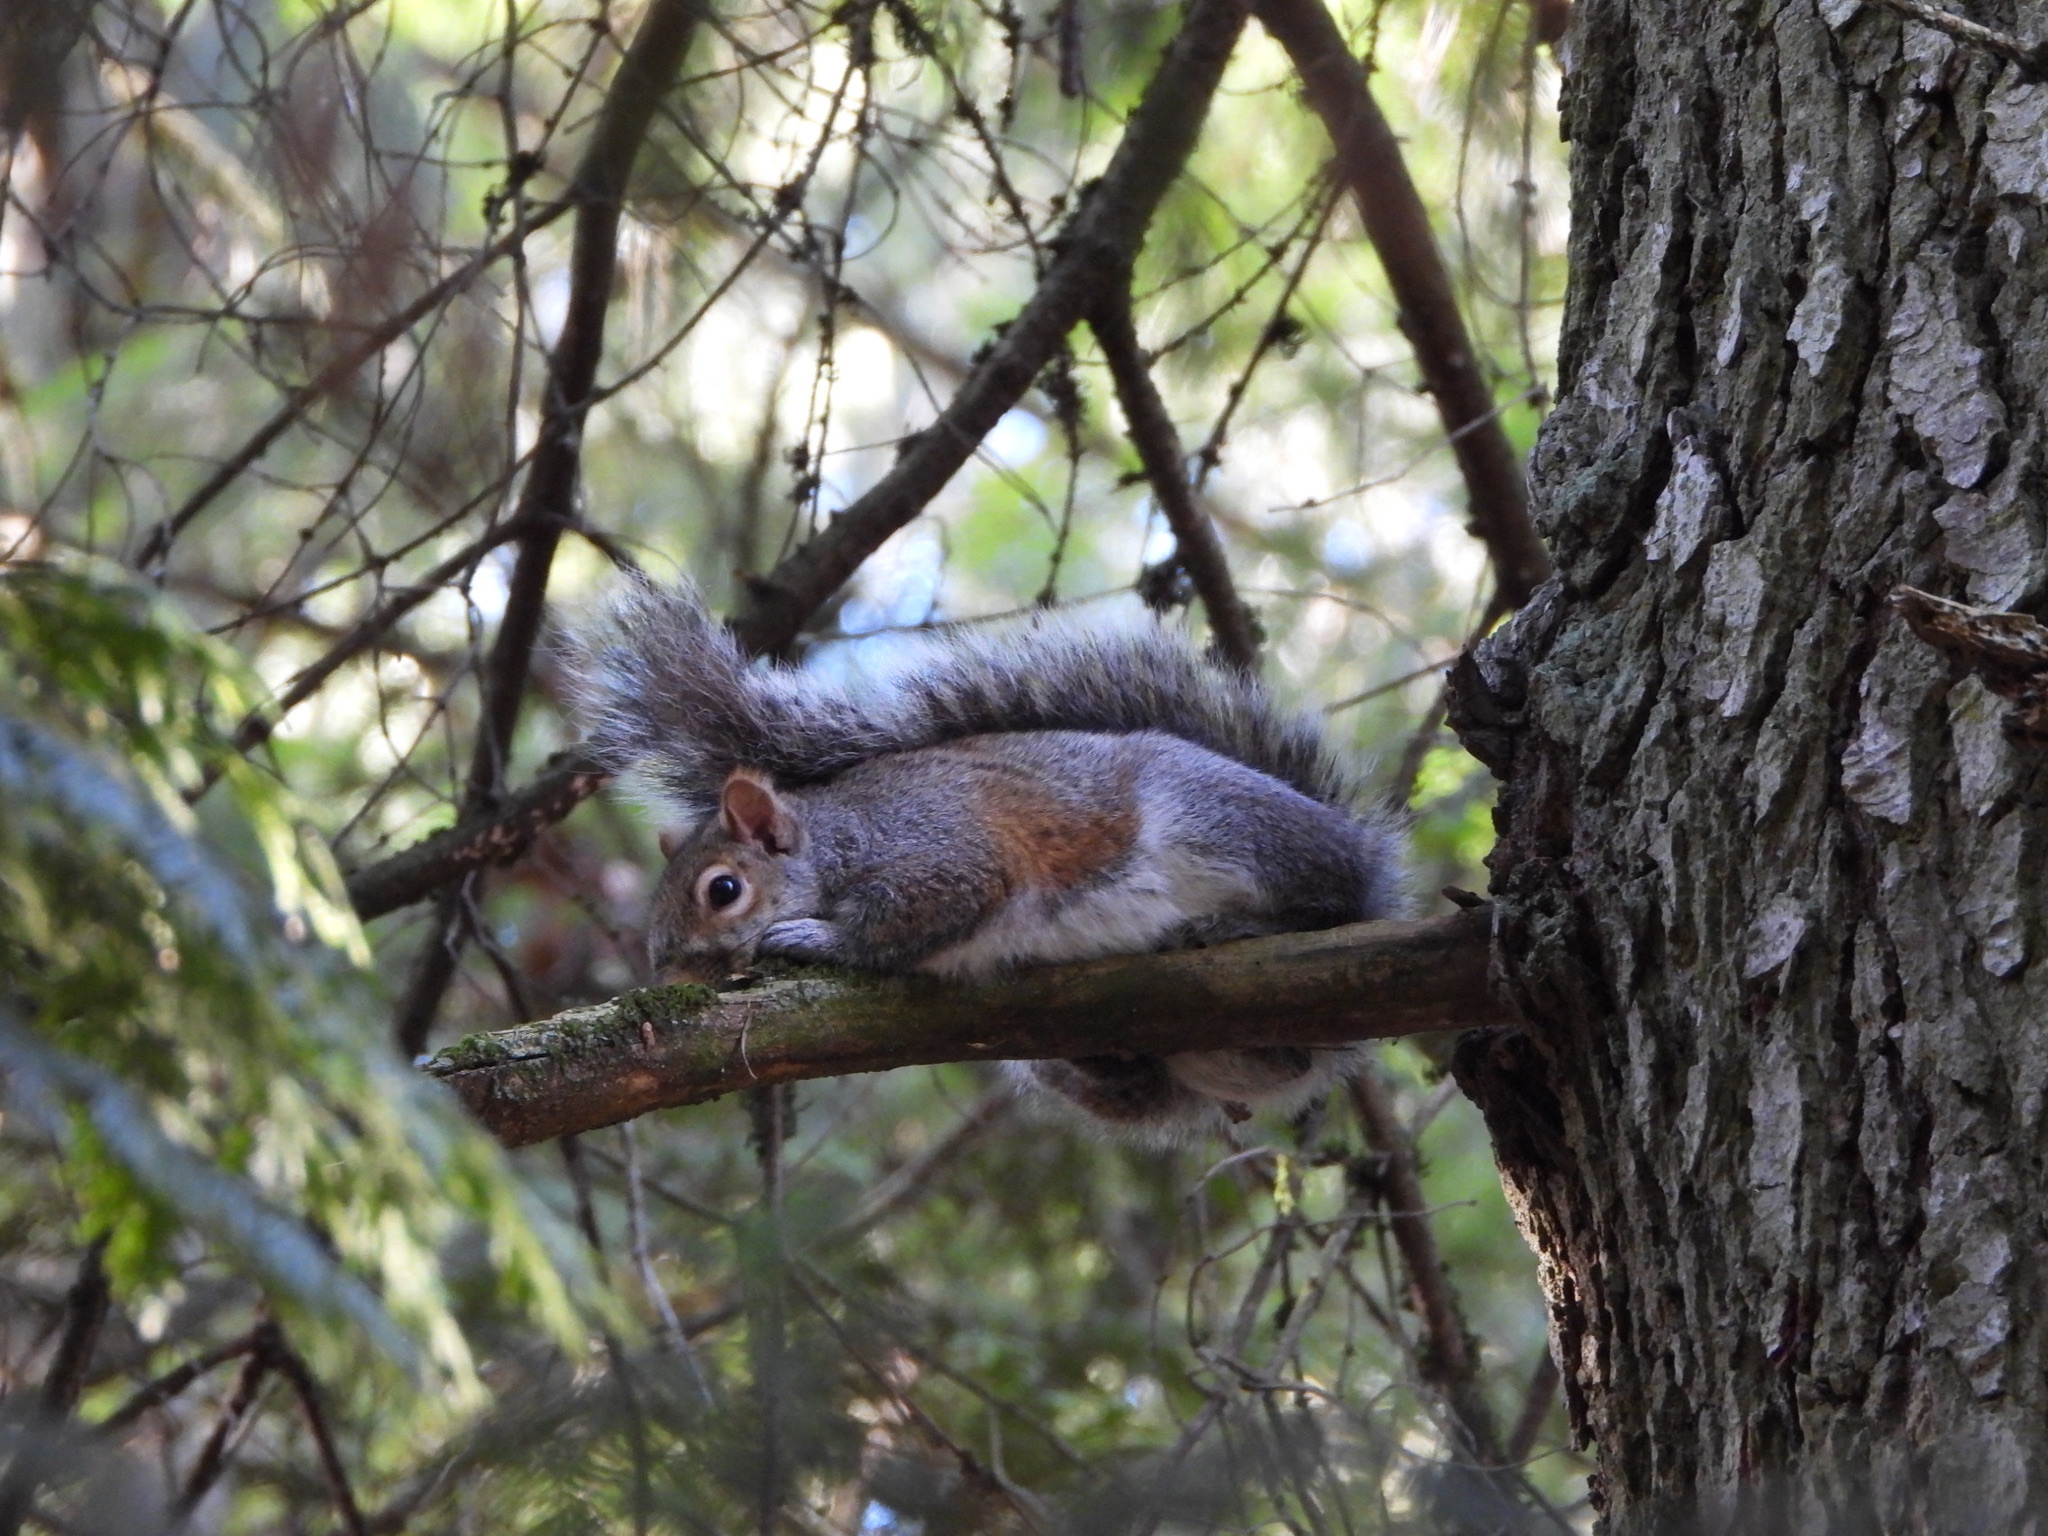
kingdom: Animalia
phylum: Chordata
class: Mammalia
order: Rodentia
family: Sciuridae
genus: Sciurus
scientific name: Sciurus carolinensis
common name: Eastern gray squirrel
